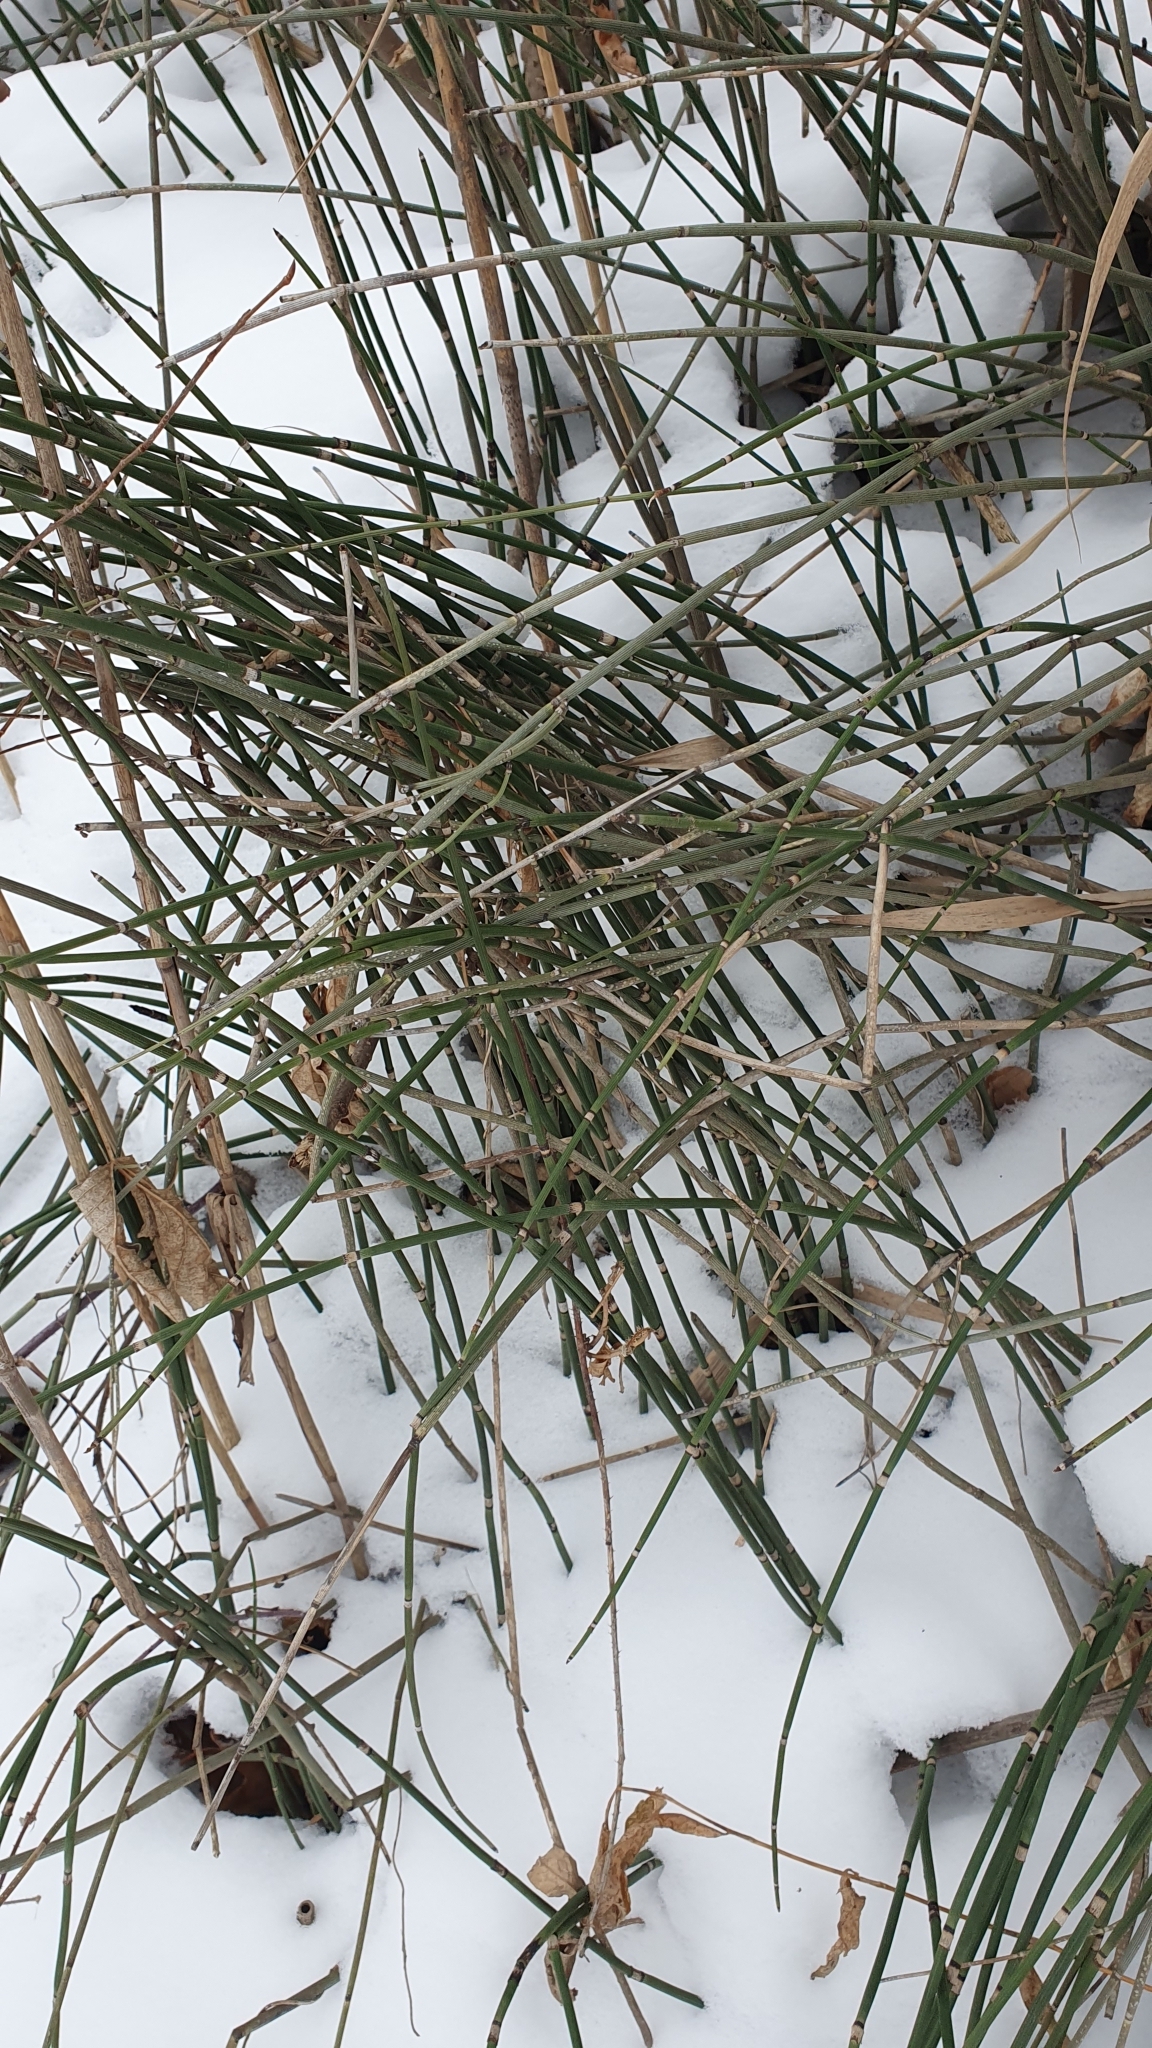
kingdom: Plantae
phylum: Tracheophyta
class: Polypodiopsida
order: Equisetales
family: Equisetaceae
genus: Equisetum
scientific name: Equisetum hyemale
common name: Rough horsetail
